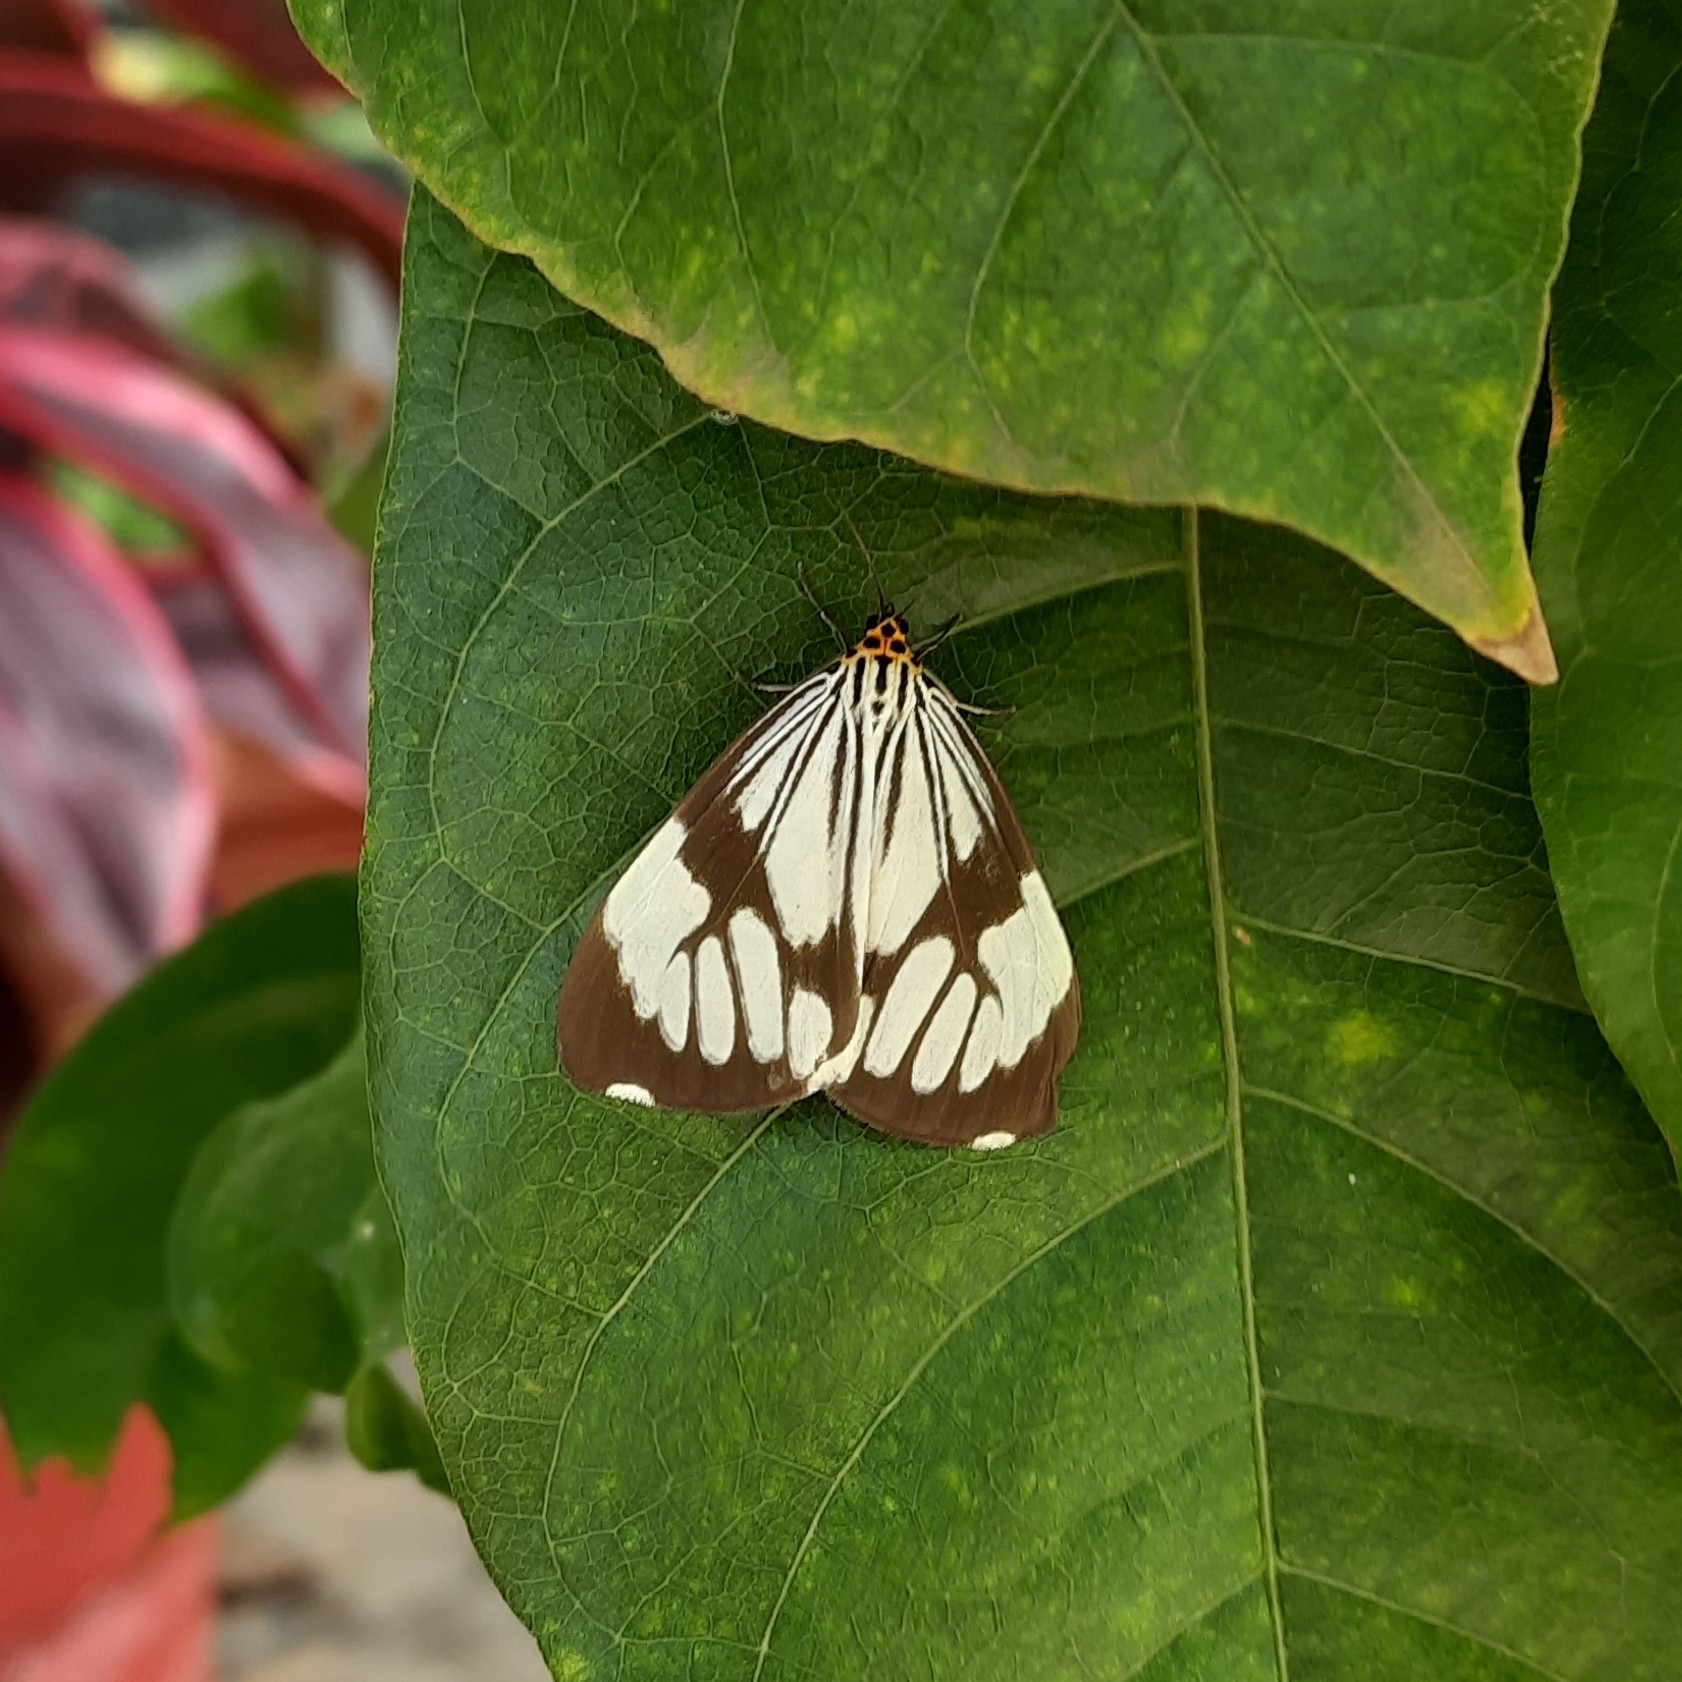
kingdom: Animalia
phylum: Arthropoda
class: Insecta
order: Lepidoptera
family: Erebidae
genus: Nyctemera
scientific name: Nyctemera coleta
